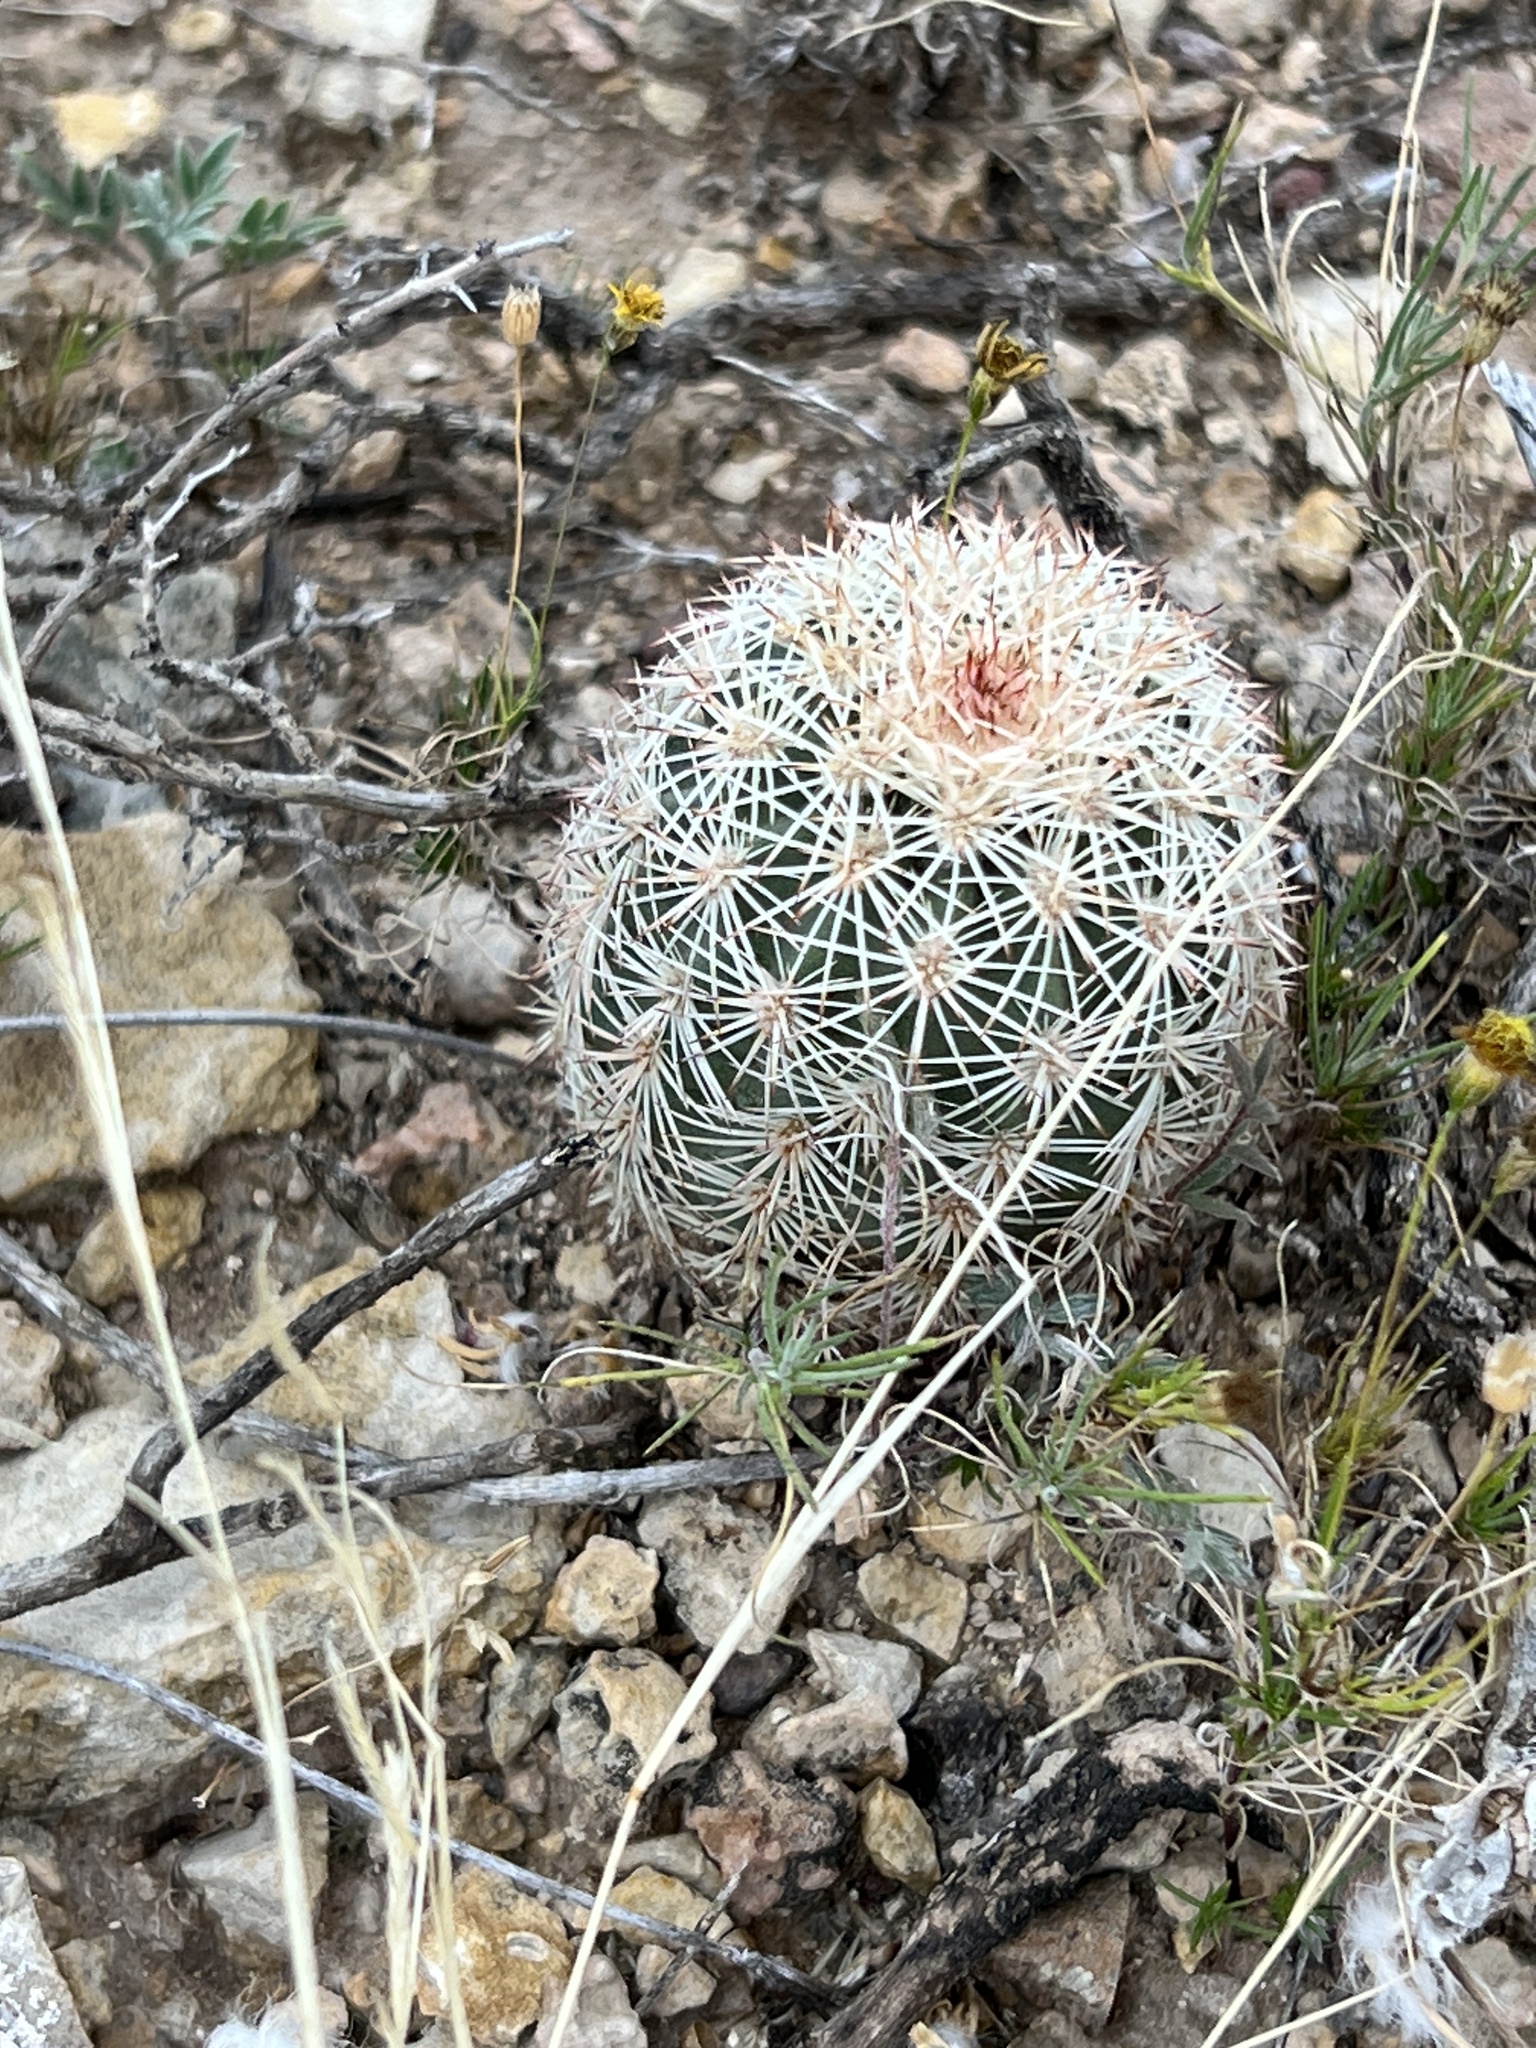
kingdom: Plantae
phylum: Tracheophyta
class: Magnoliopsida
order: Caryophyllales
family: Cactaceae
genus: Echinocereus
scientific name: Echinocereus dasyacanthus
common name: Spiny hedgehog cactus
